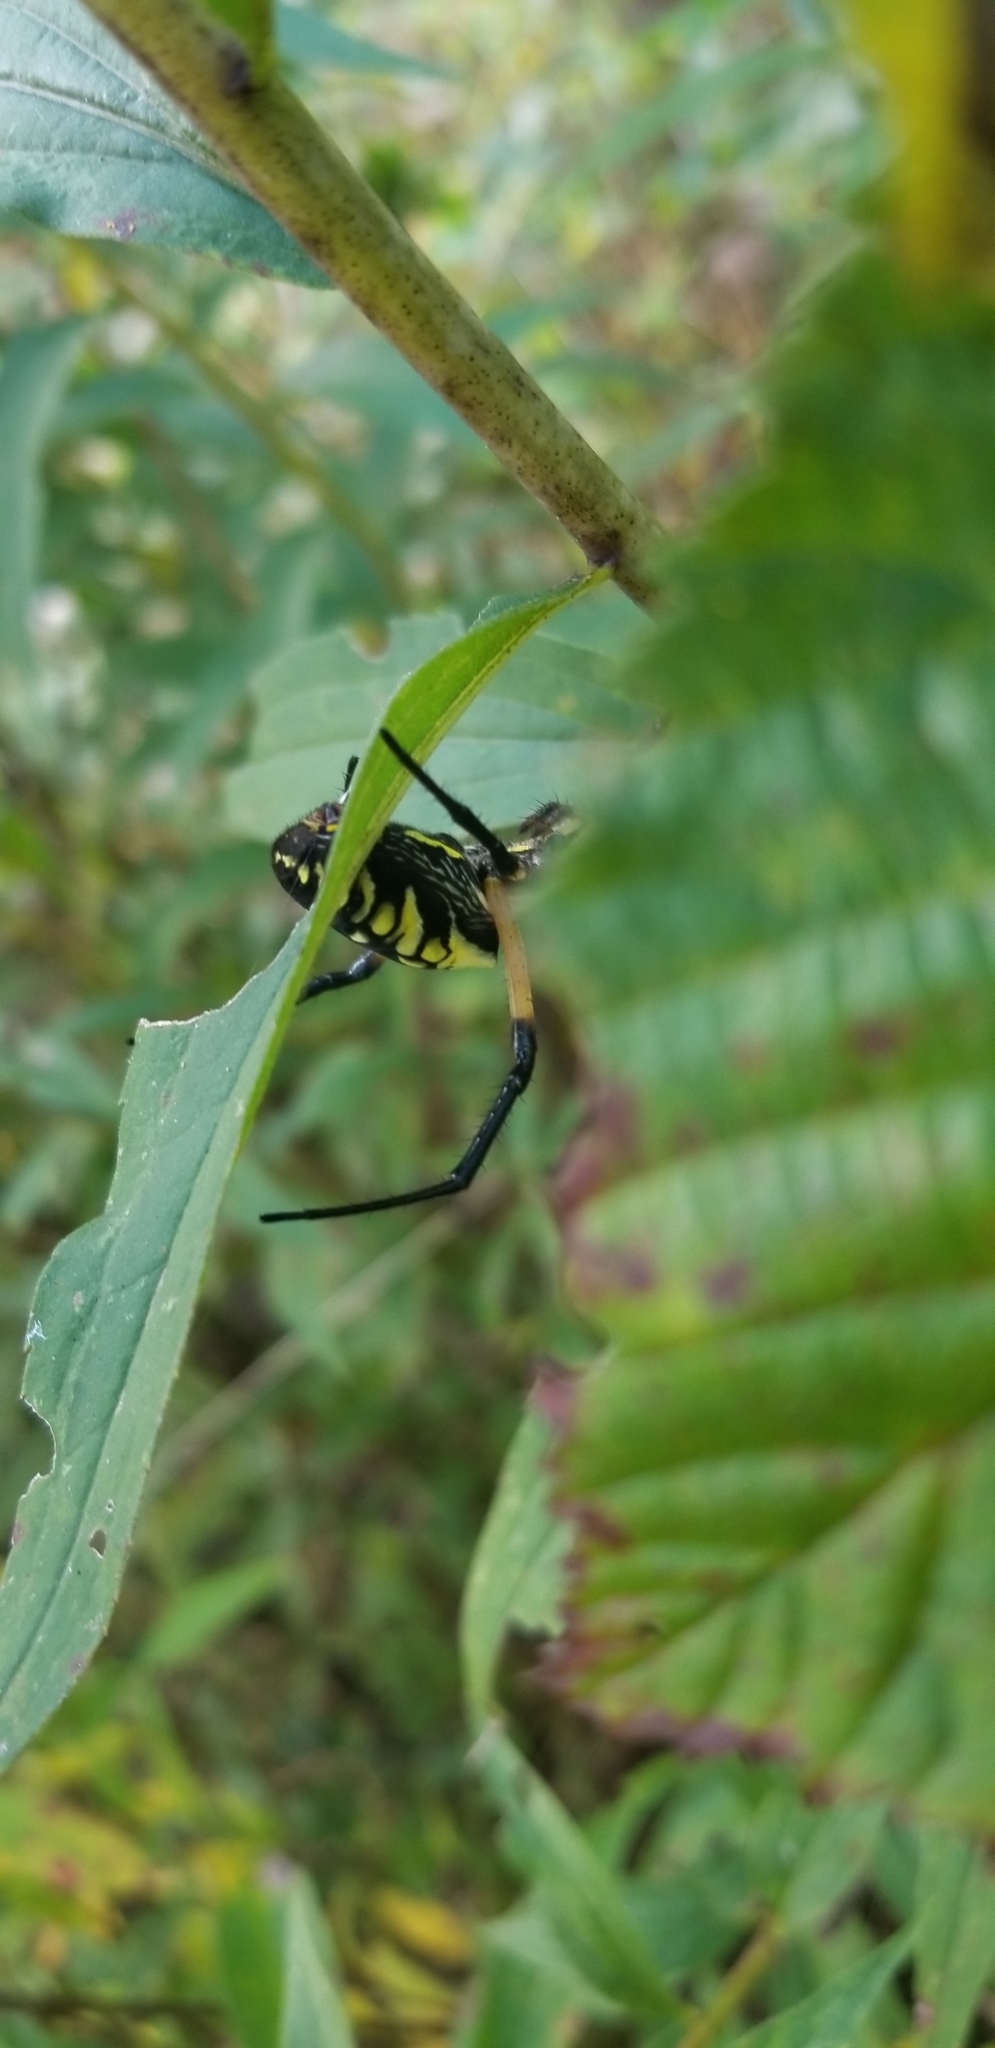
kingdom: Animalia
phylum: Arthropoda
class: Arachnida
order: Araneae
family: Araneidae
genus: Argiope
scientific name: Argiope aurantia
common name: Orb weavers
